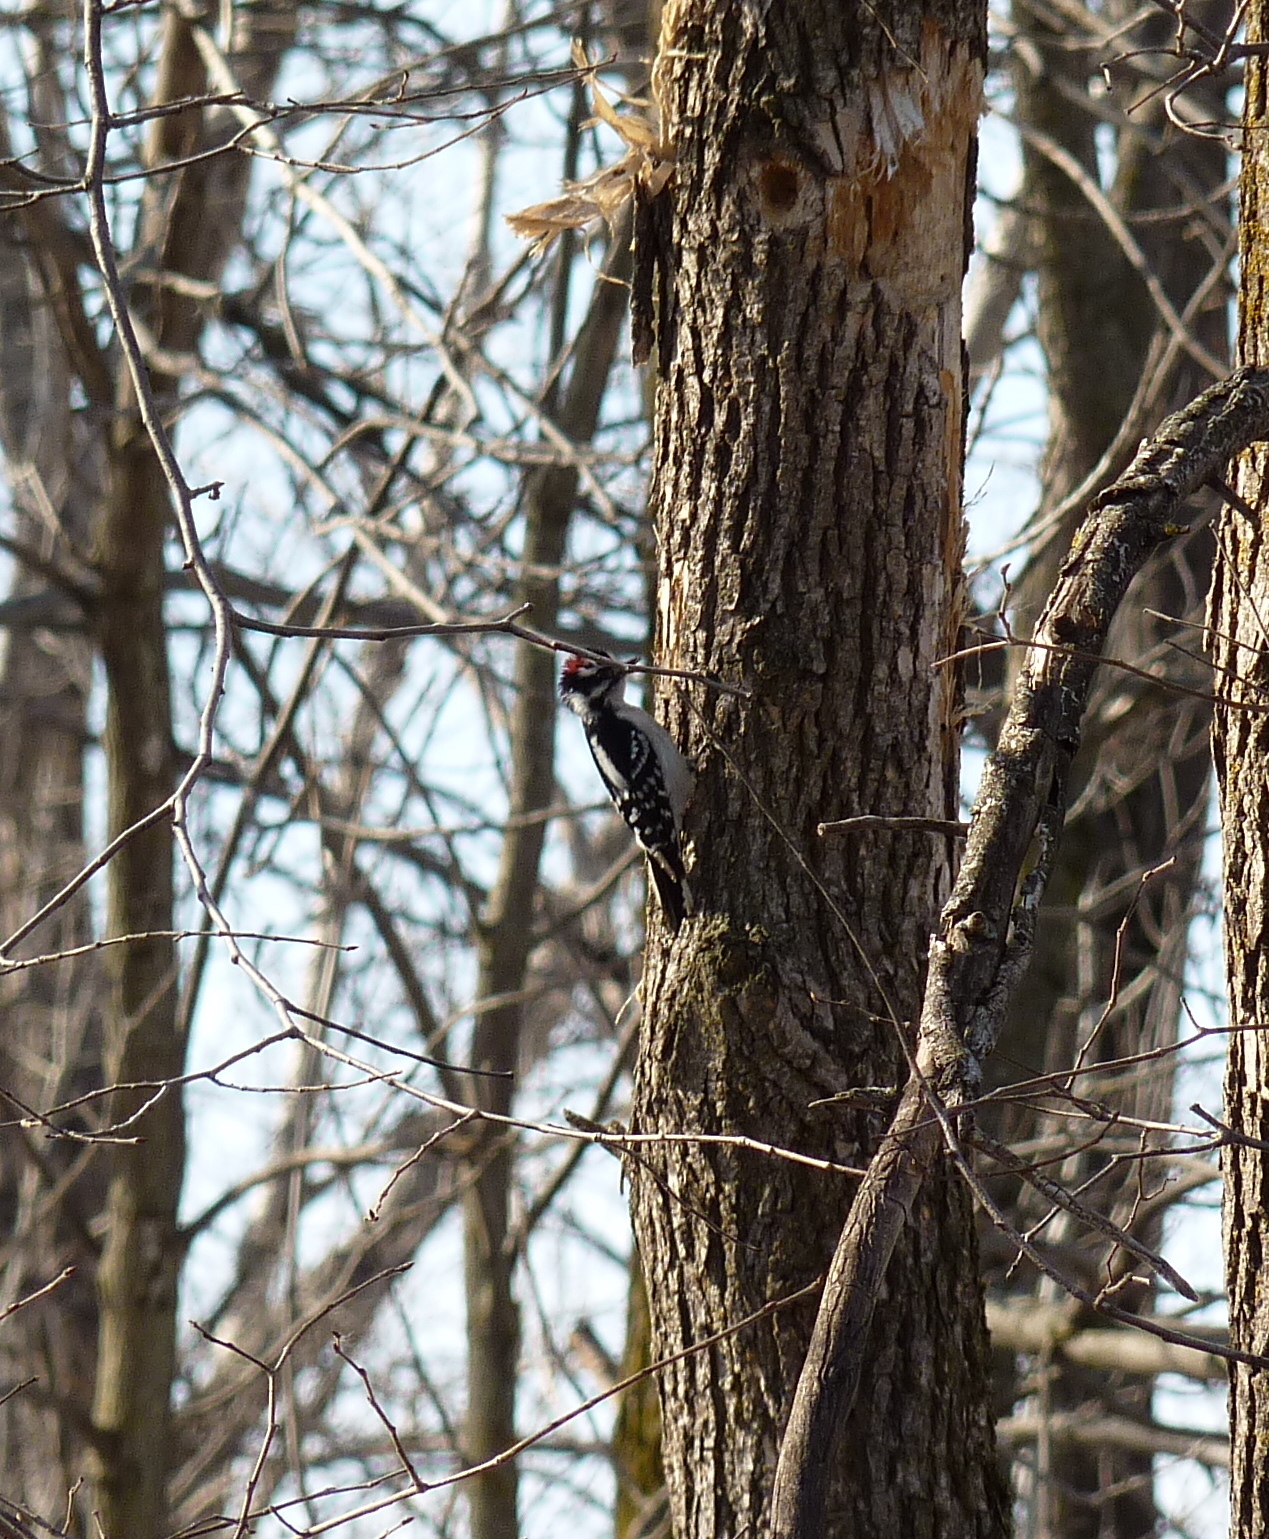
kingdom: Animalia
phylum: Chordata
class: Aves
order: Piciformes
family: Picidae
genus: Dryobates
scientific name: Dryobates pubescens
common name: Downy woodpecker
